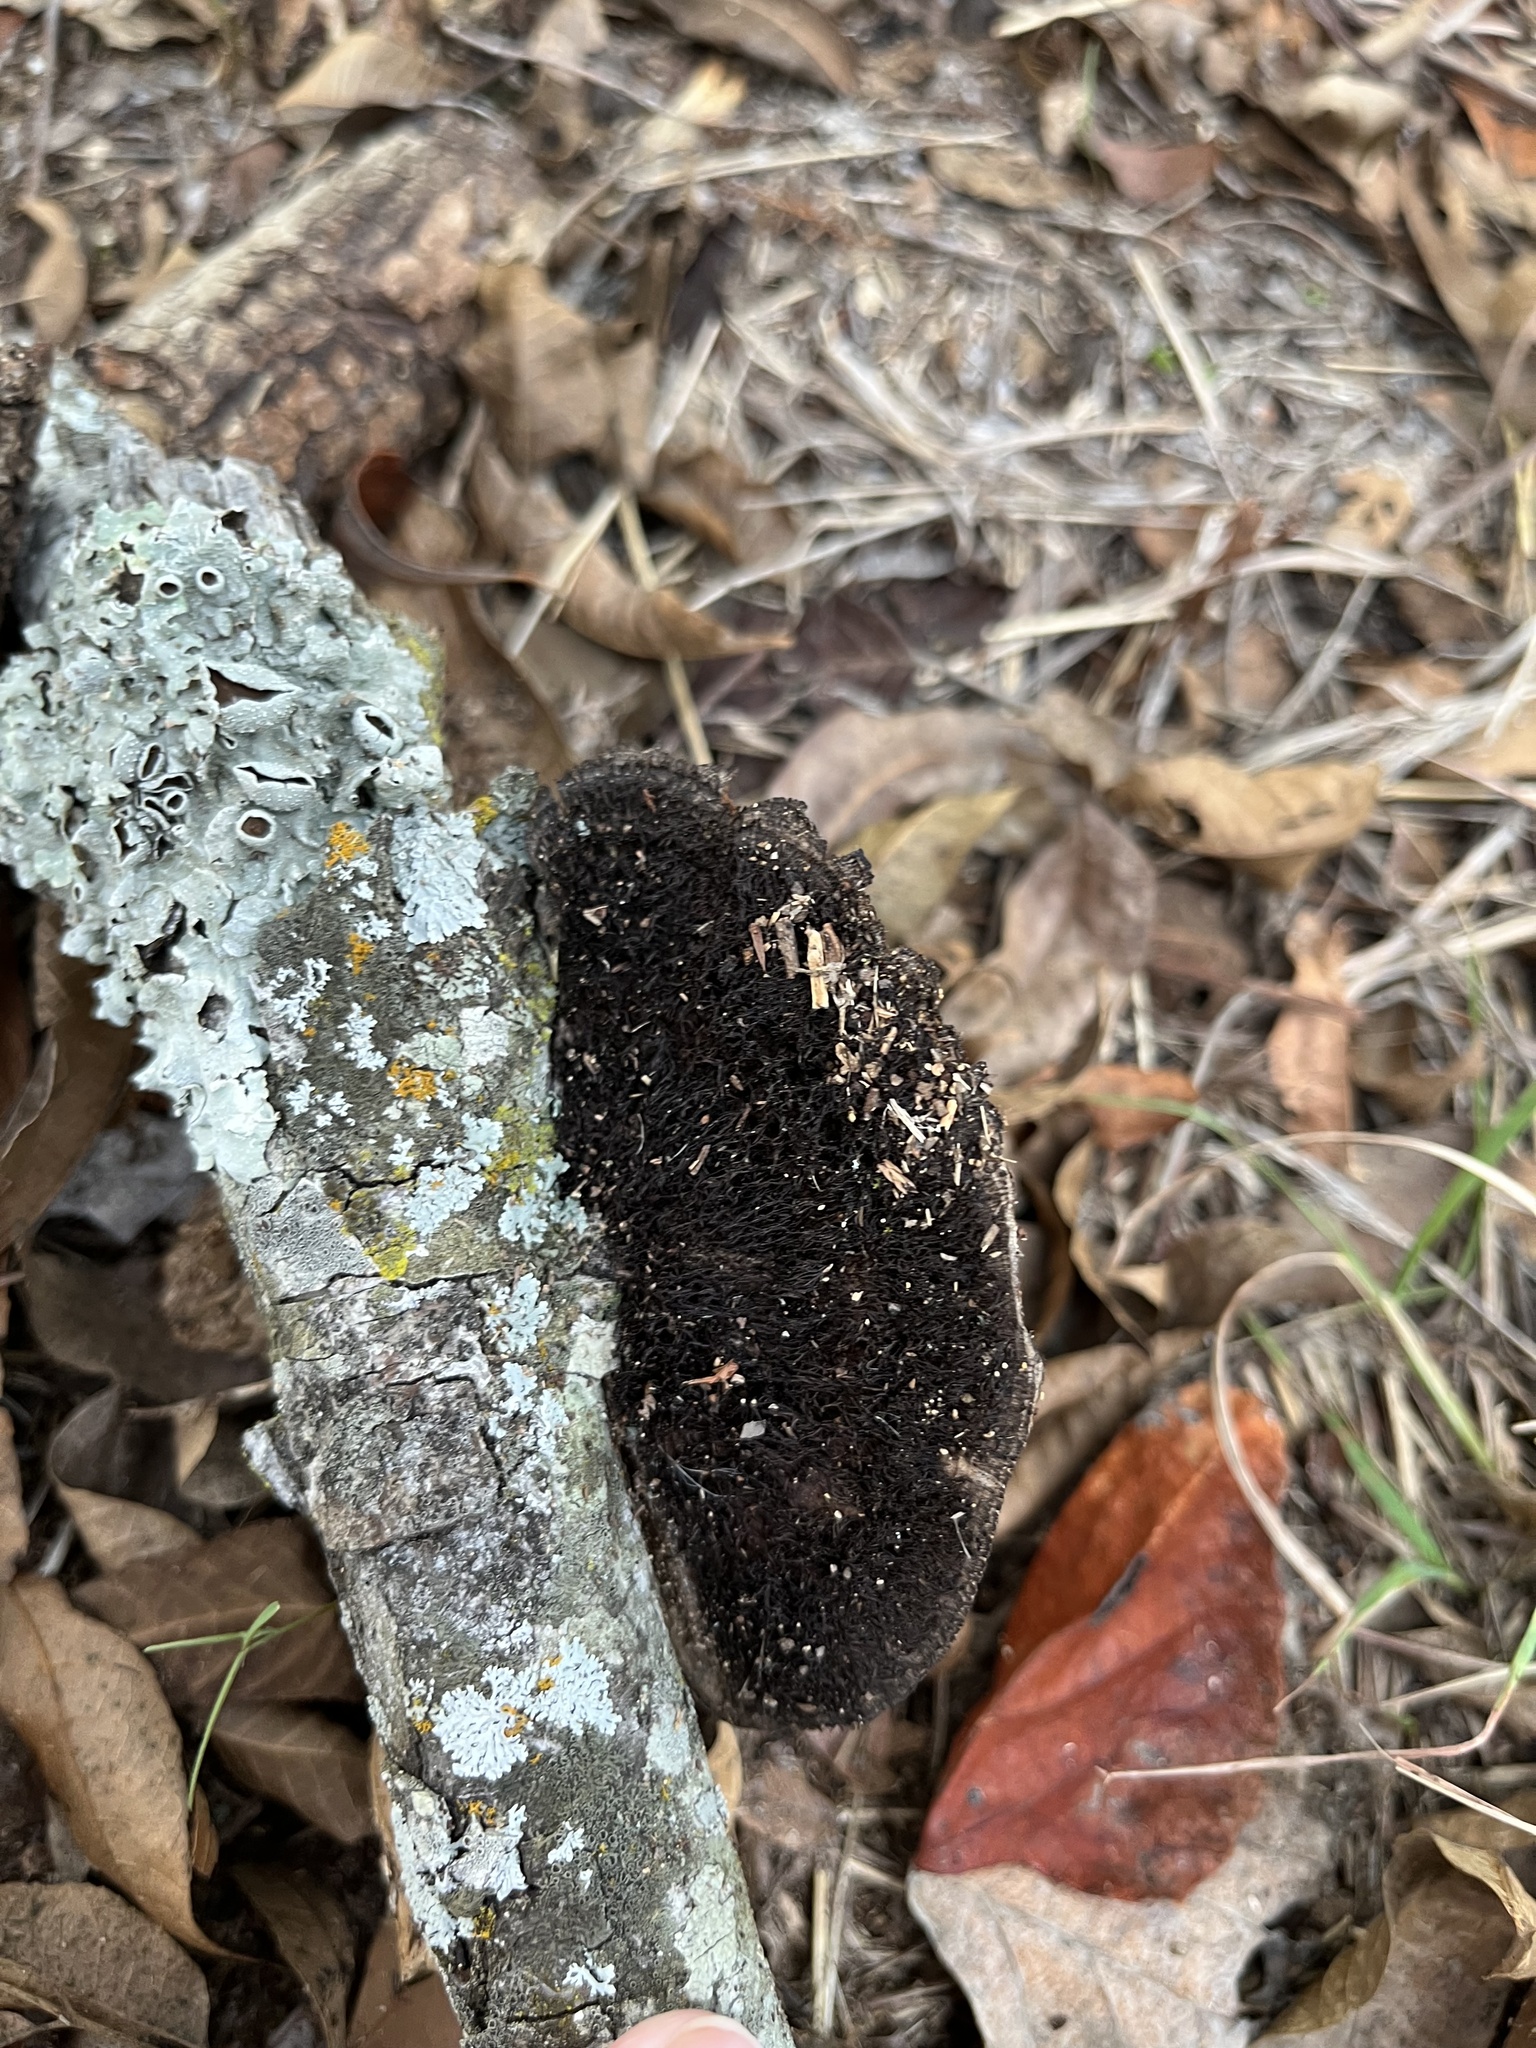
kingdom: Fungi
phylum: Basidiomycota
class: Agaricomycetes
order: Polyporales
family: Cerrenaceae
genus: Cerrena
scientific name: Cerrena hydnoides
